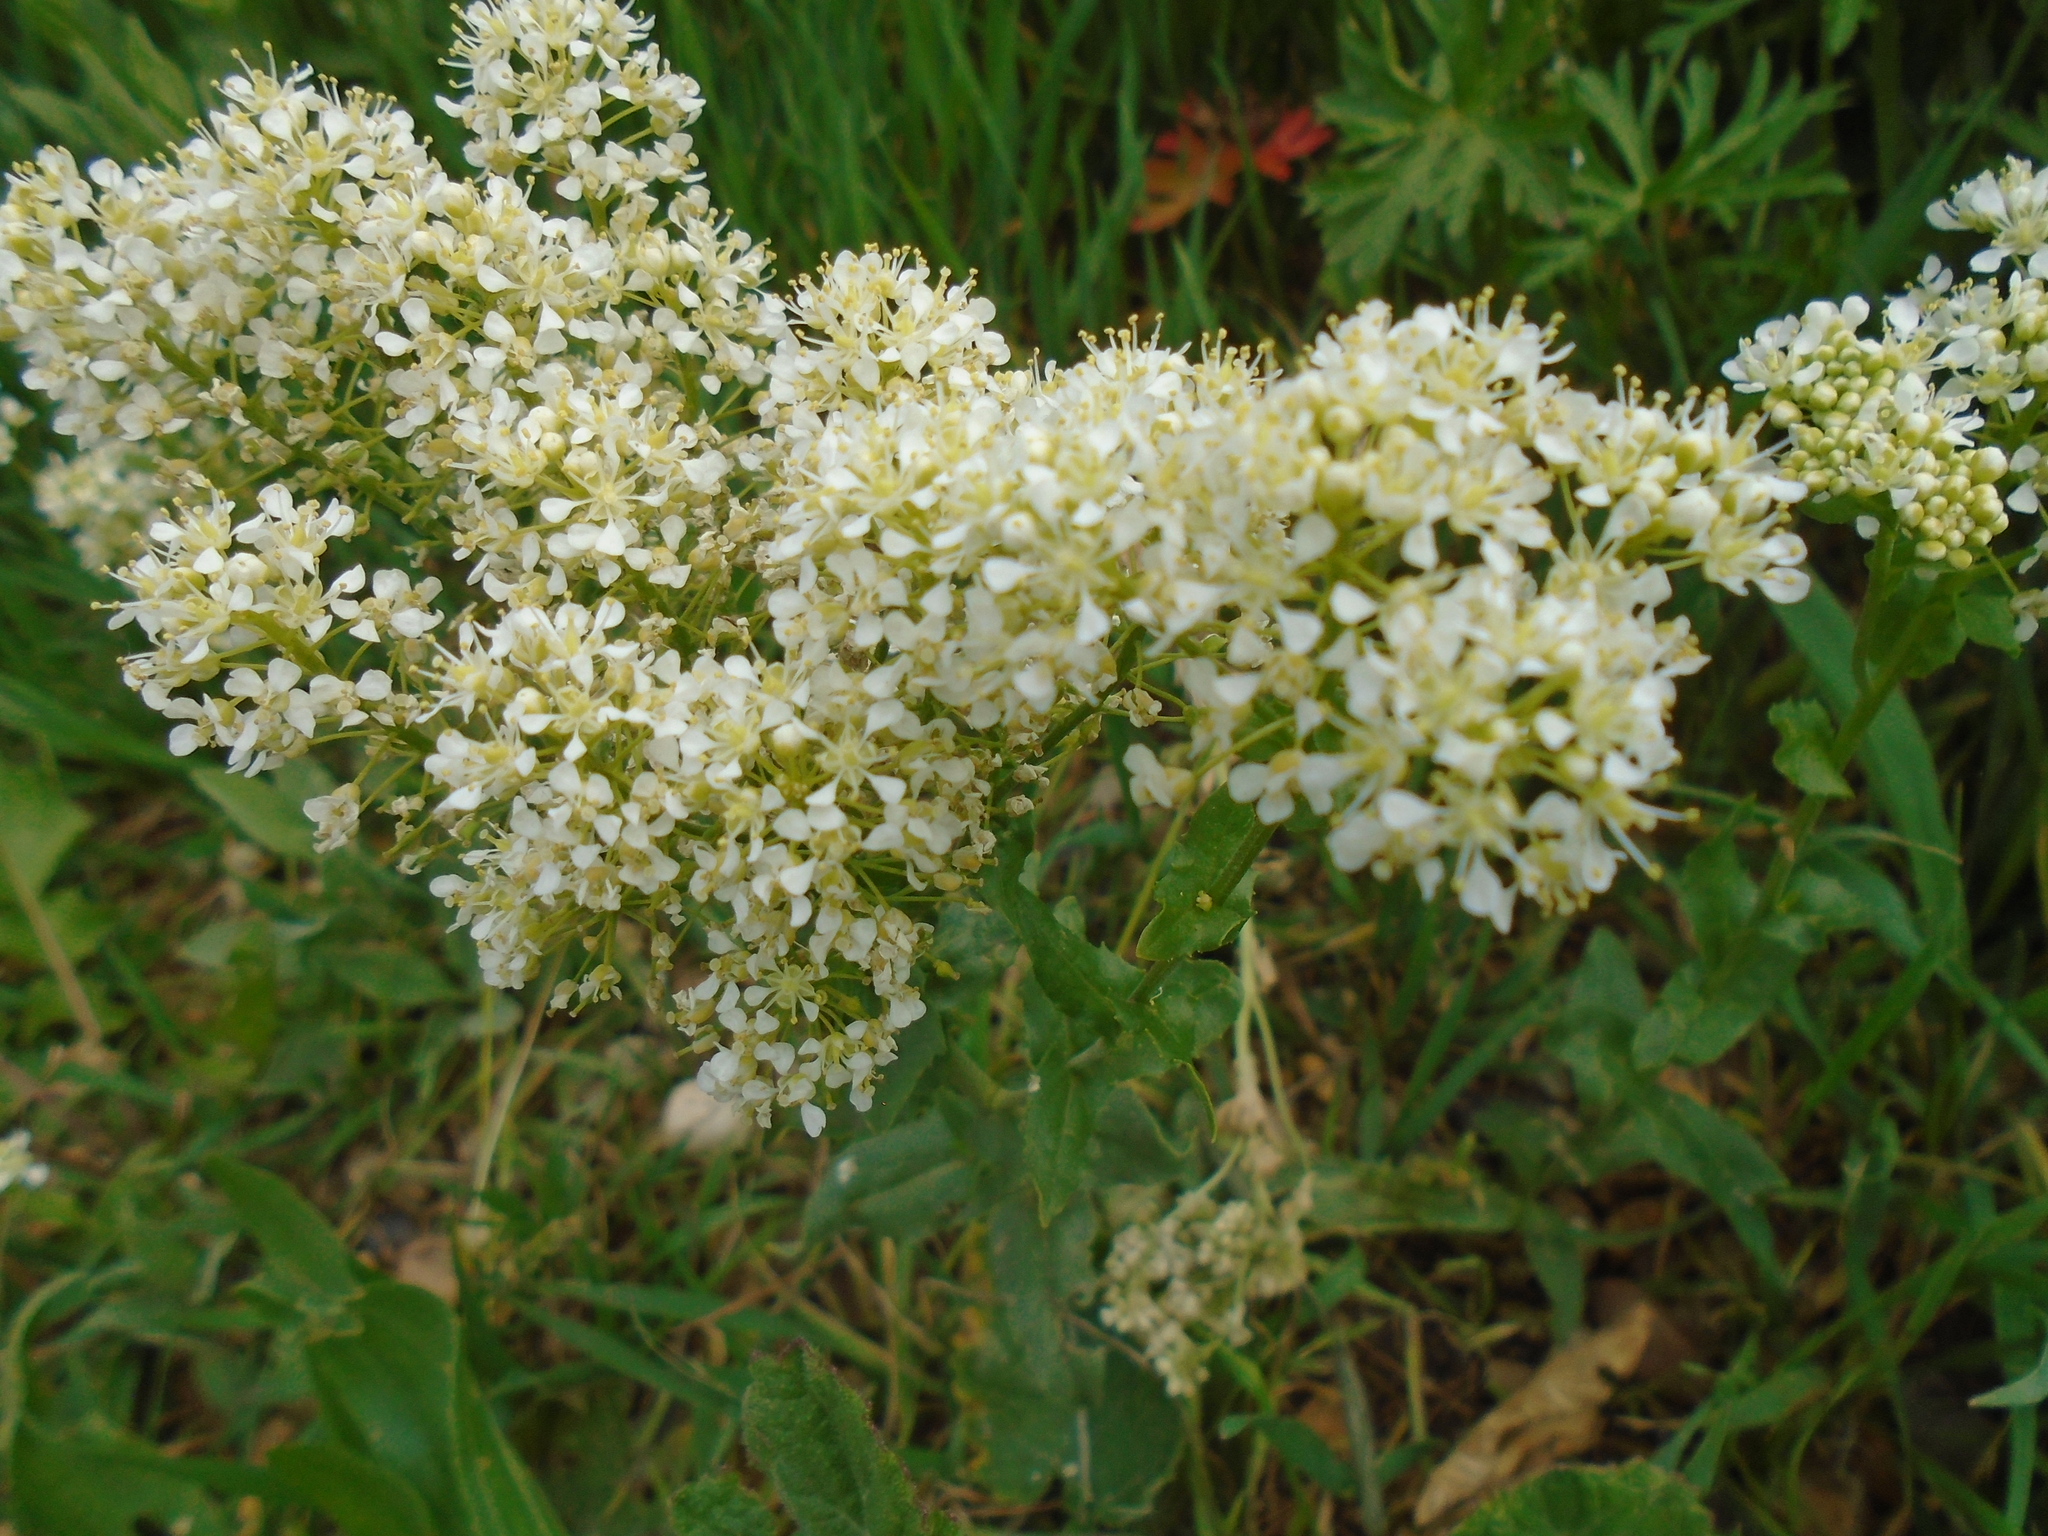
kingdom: Plantae
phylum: Tracheophyta
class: Magnoliopsida
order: Brassicales
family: Brassicaceae
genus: Lepidium
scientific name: Lepidium draba
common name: Hoary cress
